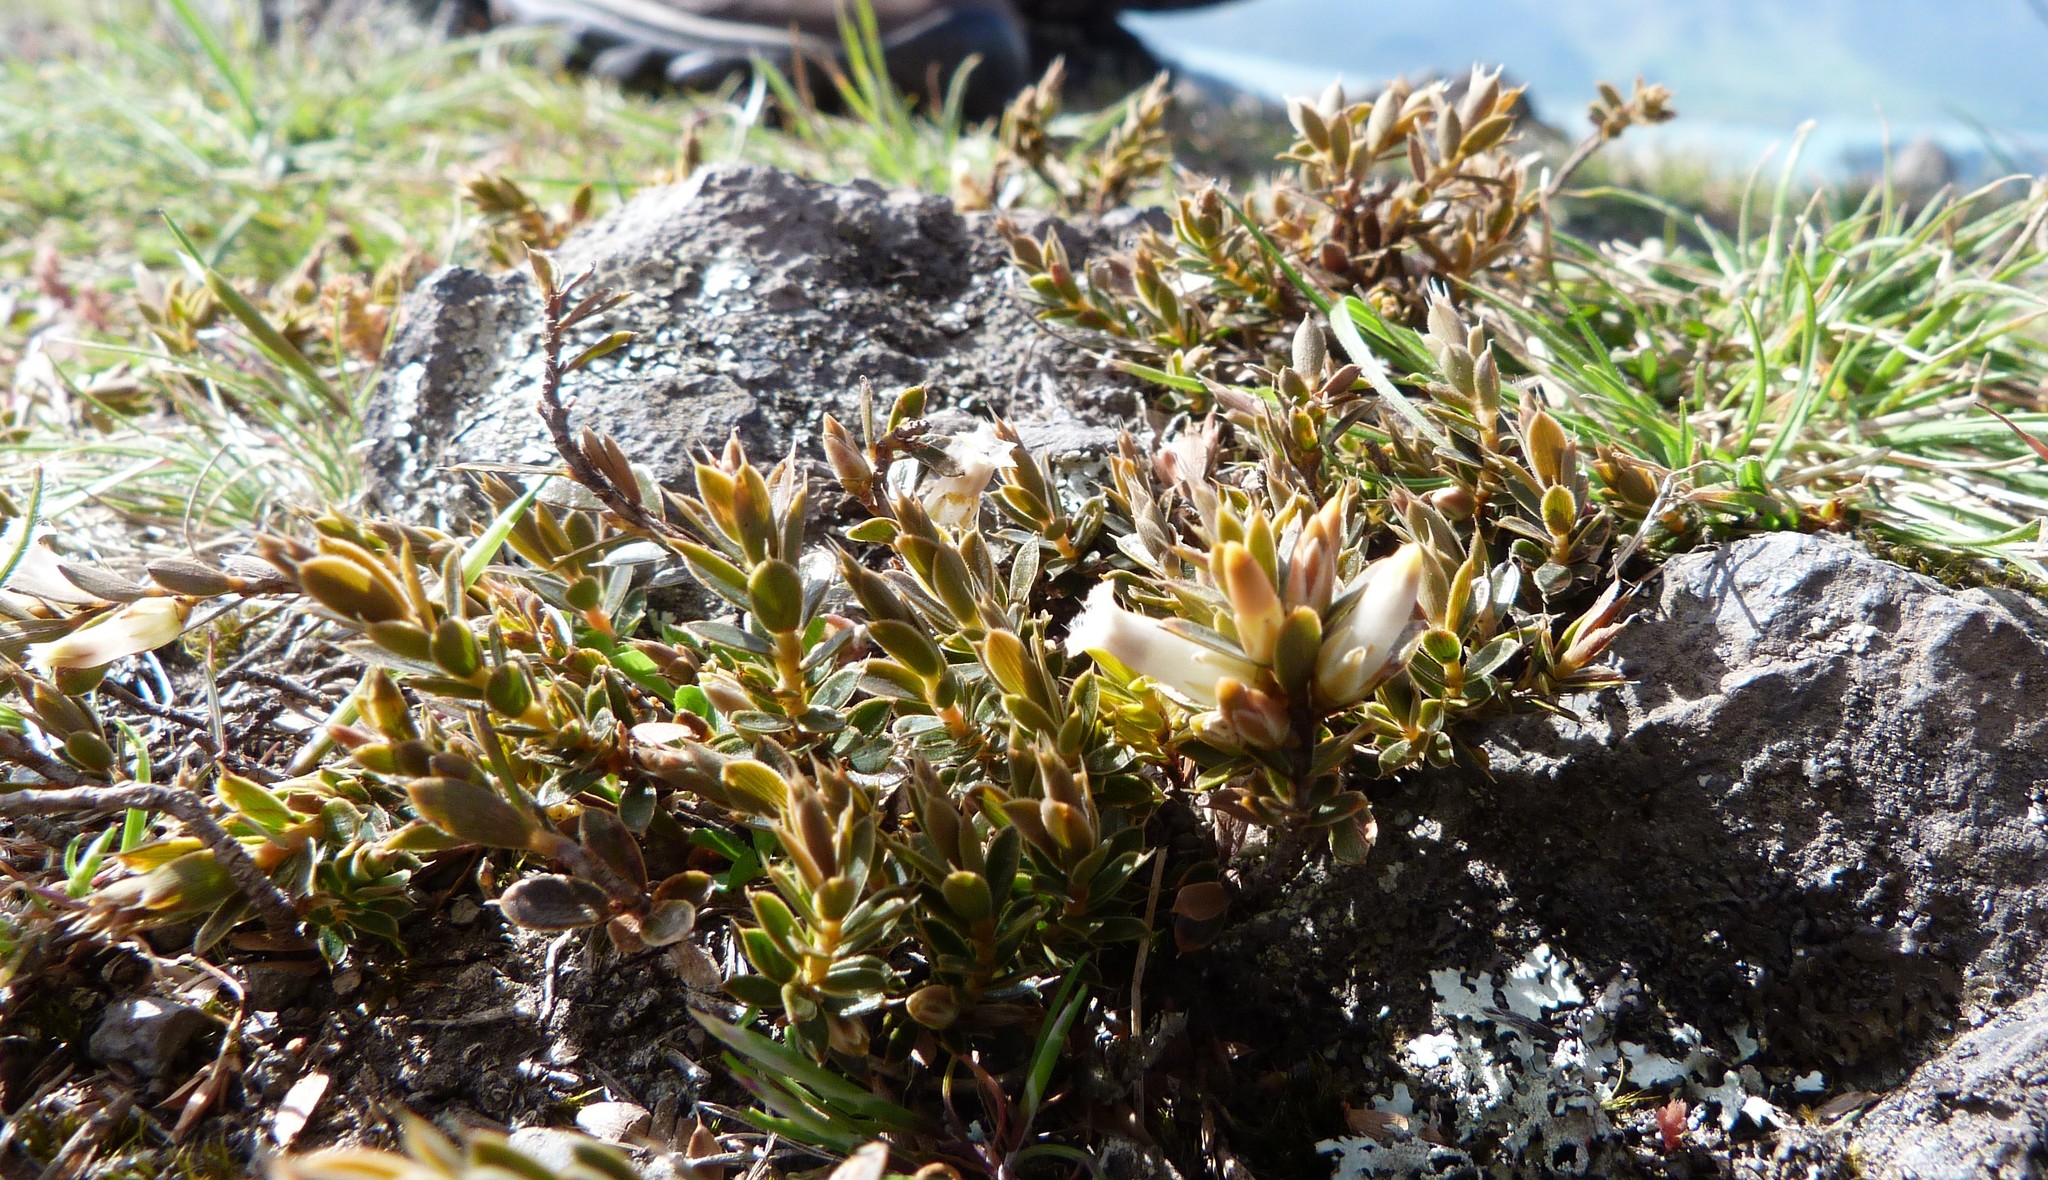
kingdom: Plantae
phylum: Tracheophyta
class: Magnoliopsida
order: Ericales
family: Ericaceae
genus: Styphelia
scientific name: Styphelia nesophila
